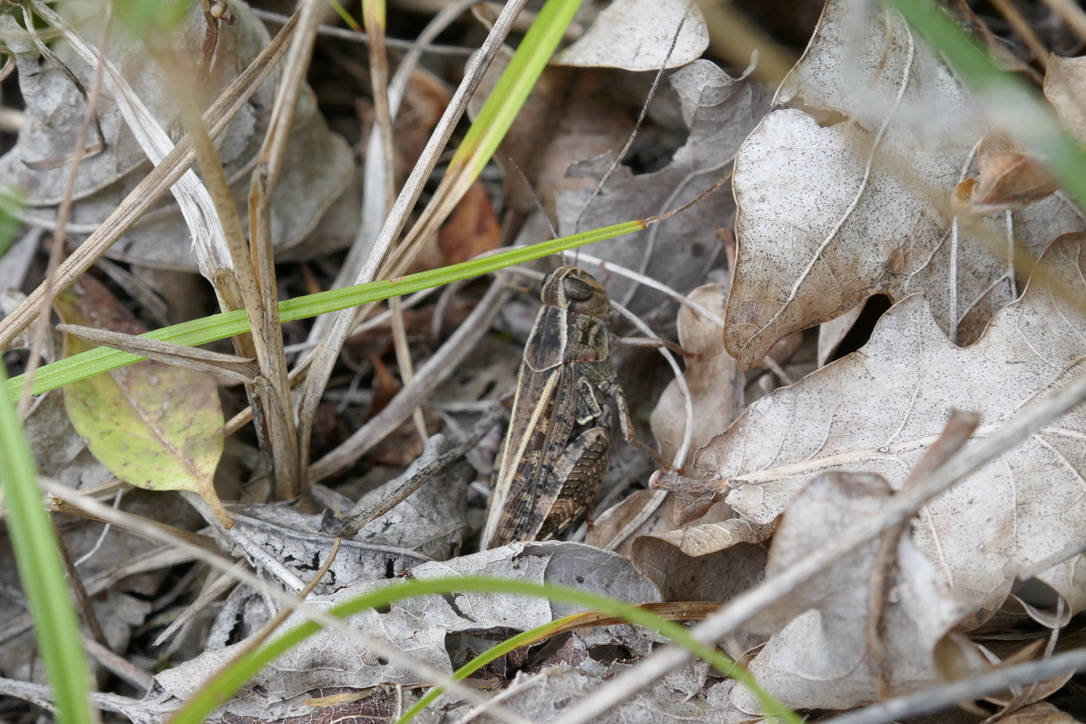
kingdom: Animalia
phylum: Arthropoda
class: Insecta
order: Orthoptera
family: Acrididae
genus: Calliptamus
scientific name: Calliptamus italicus
